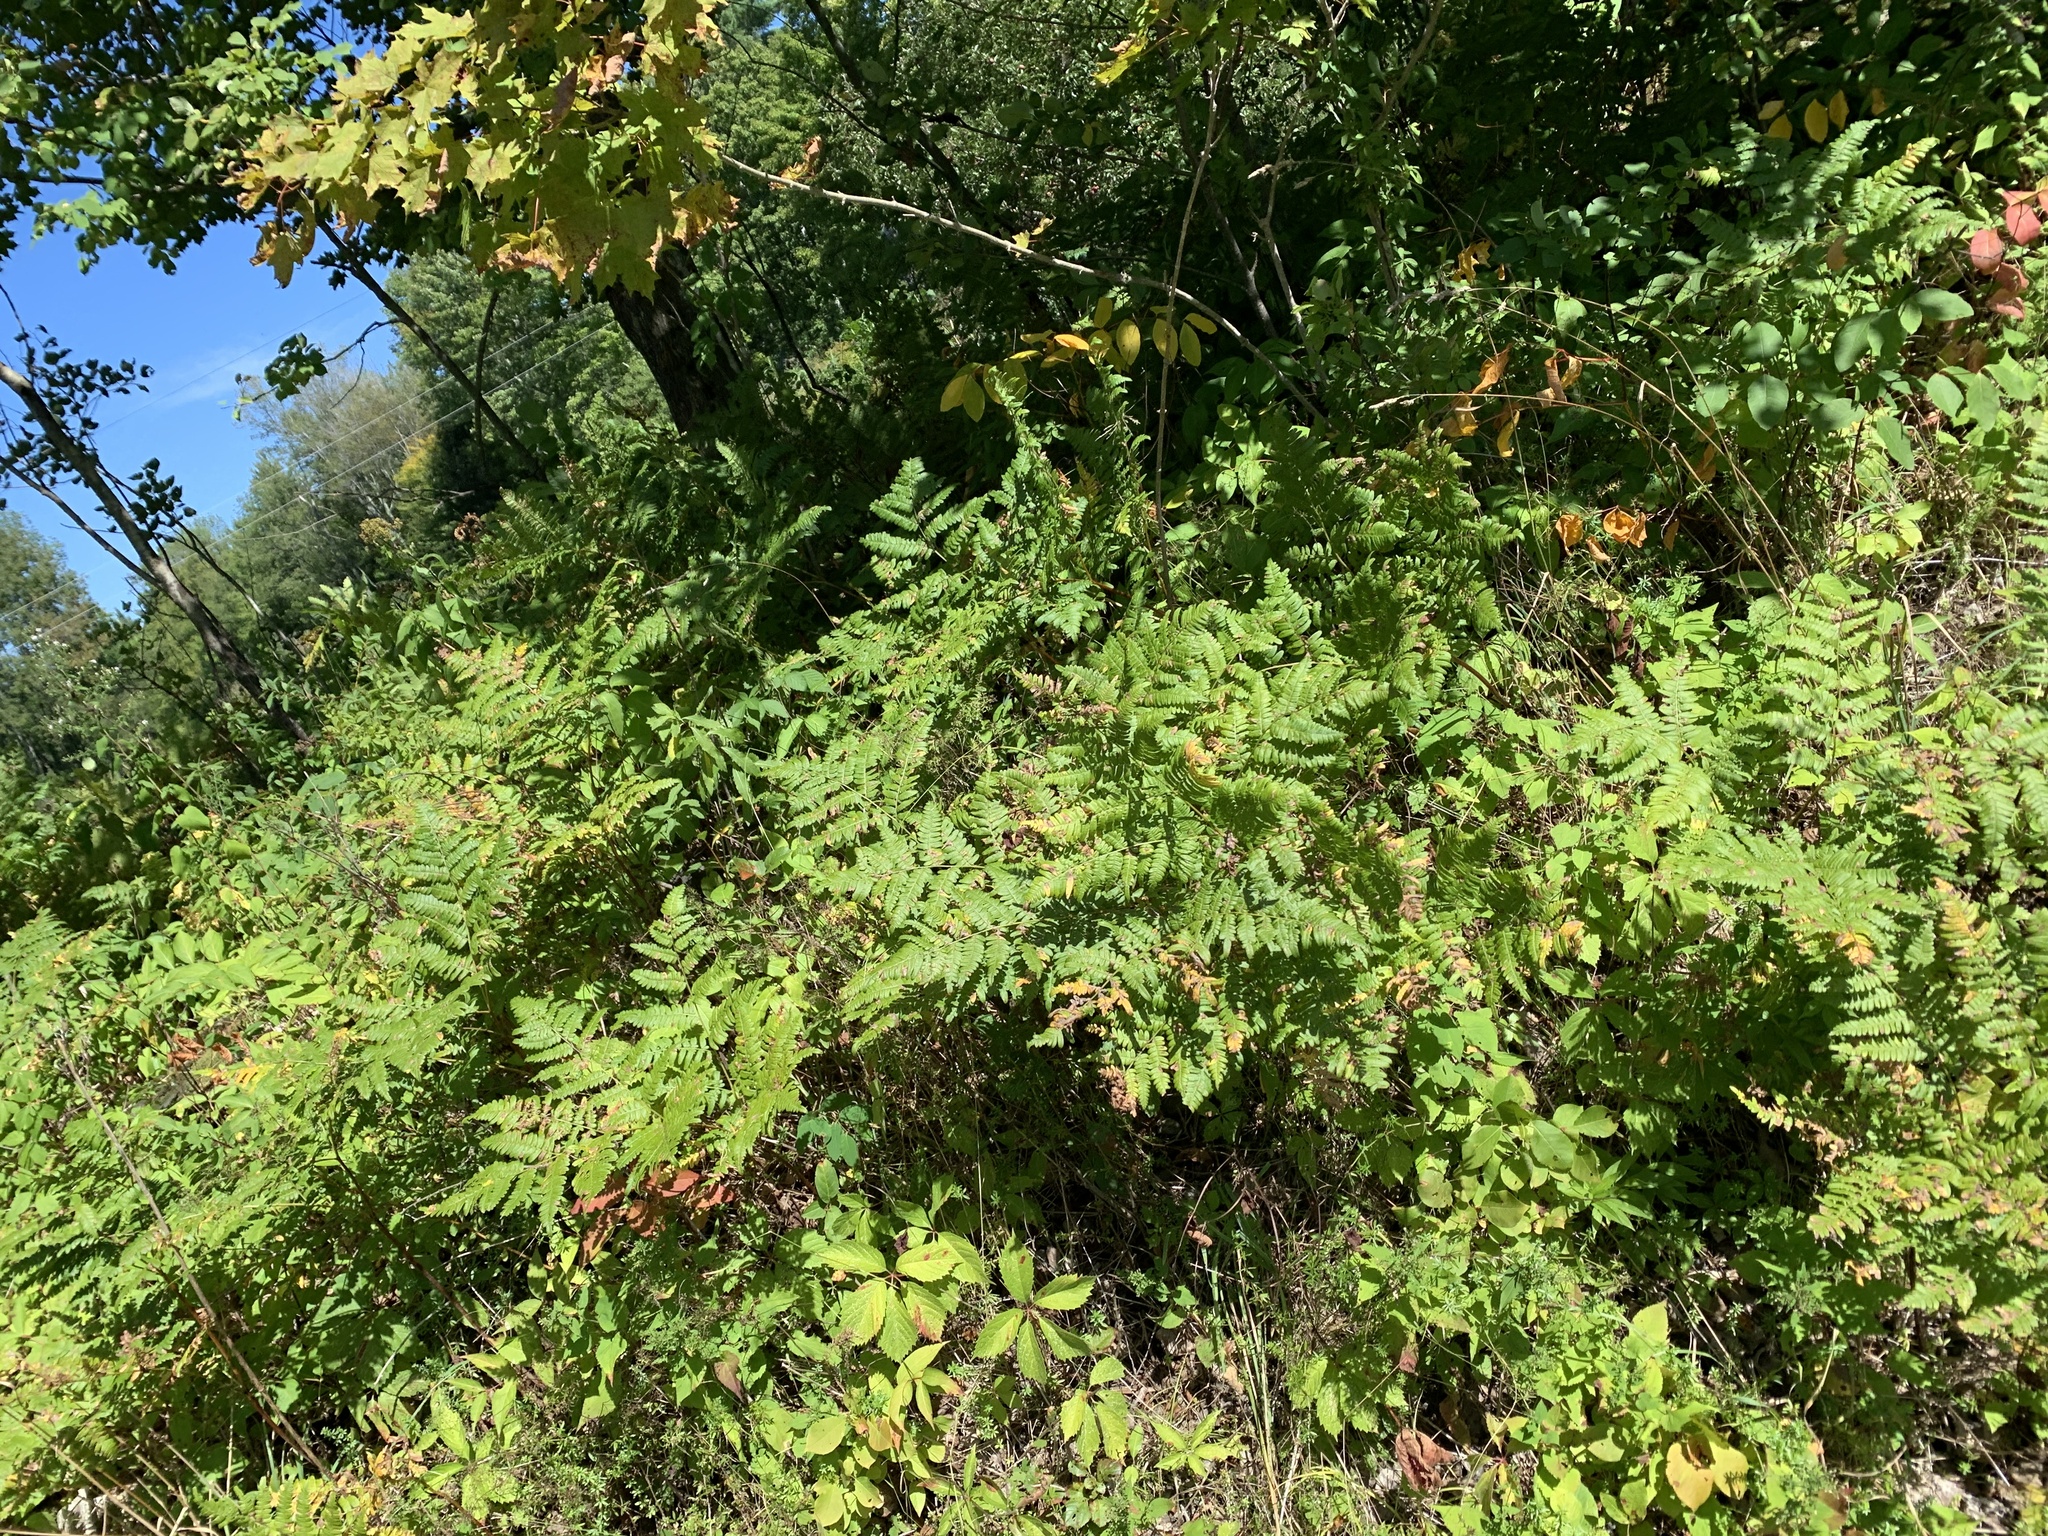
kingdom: Plantae
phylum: Tracheophyta
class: Polypodiopsida
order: Polypodiales
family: Dennstaedtiaceae
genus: Pteridium
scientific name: Pteridium aquilinum
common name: Bracken
